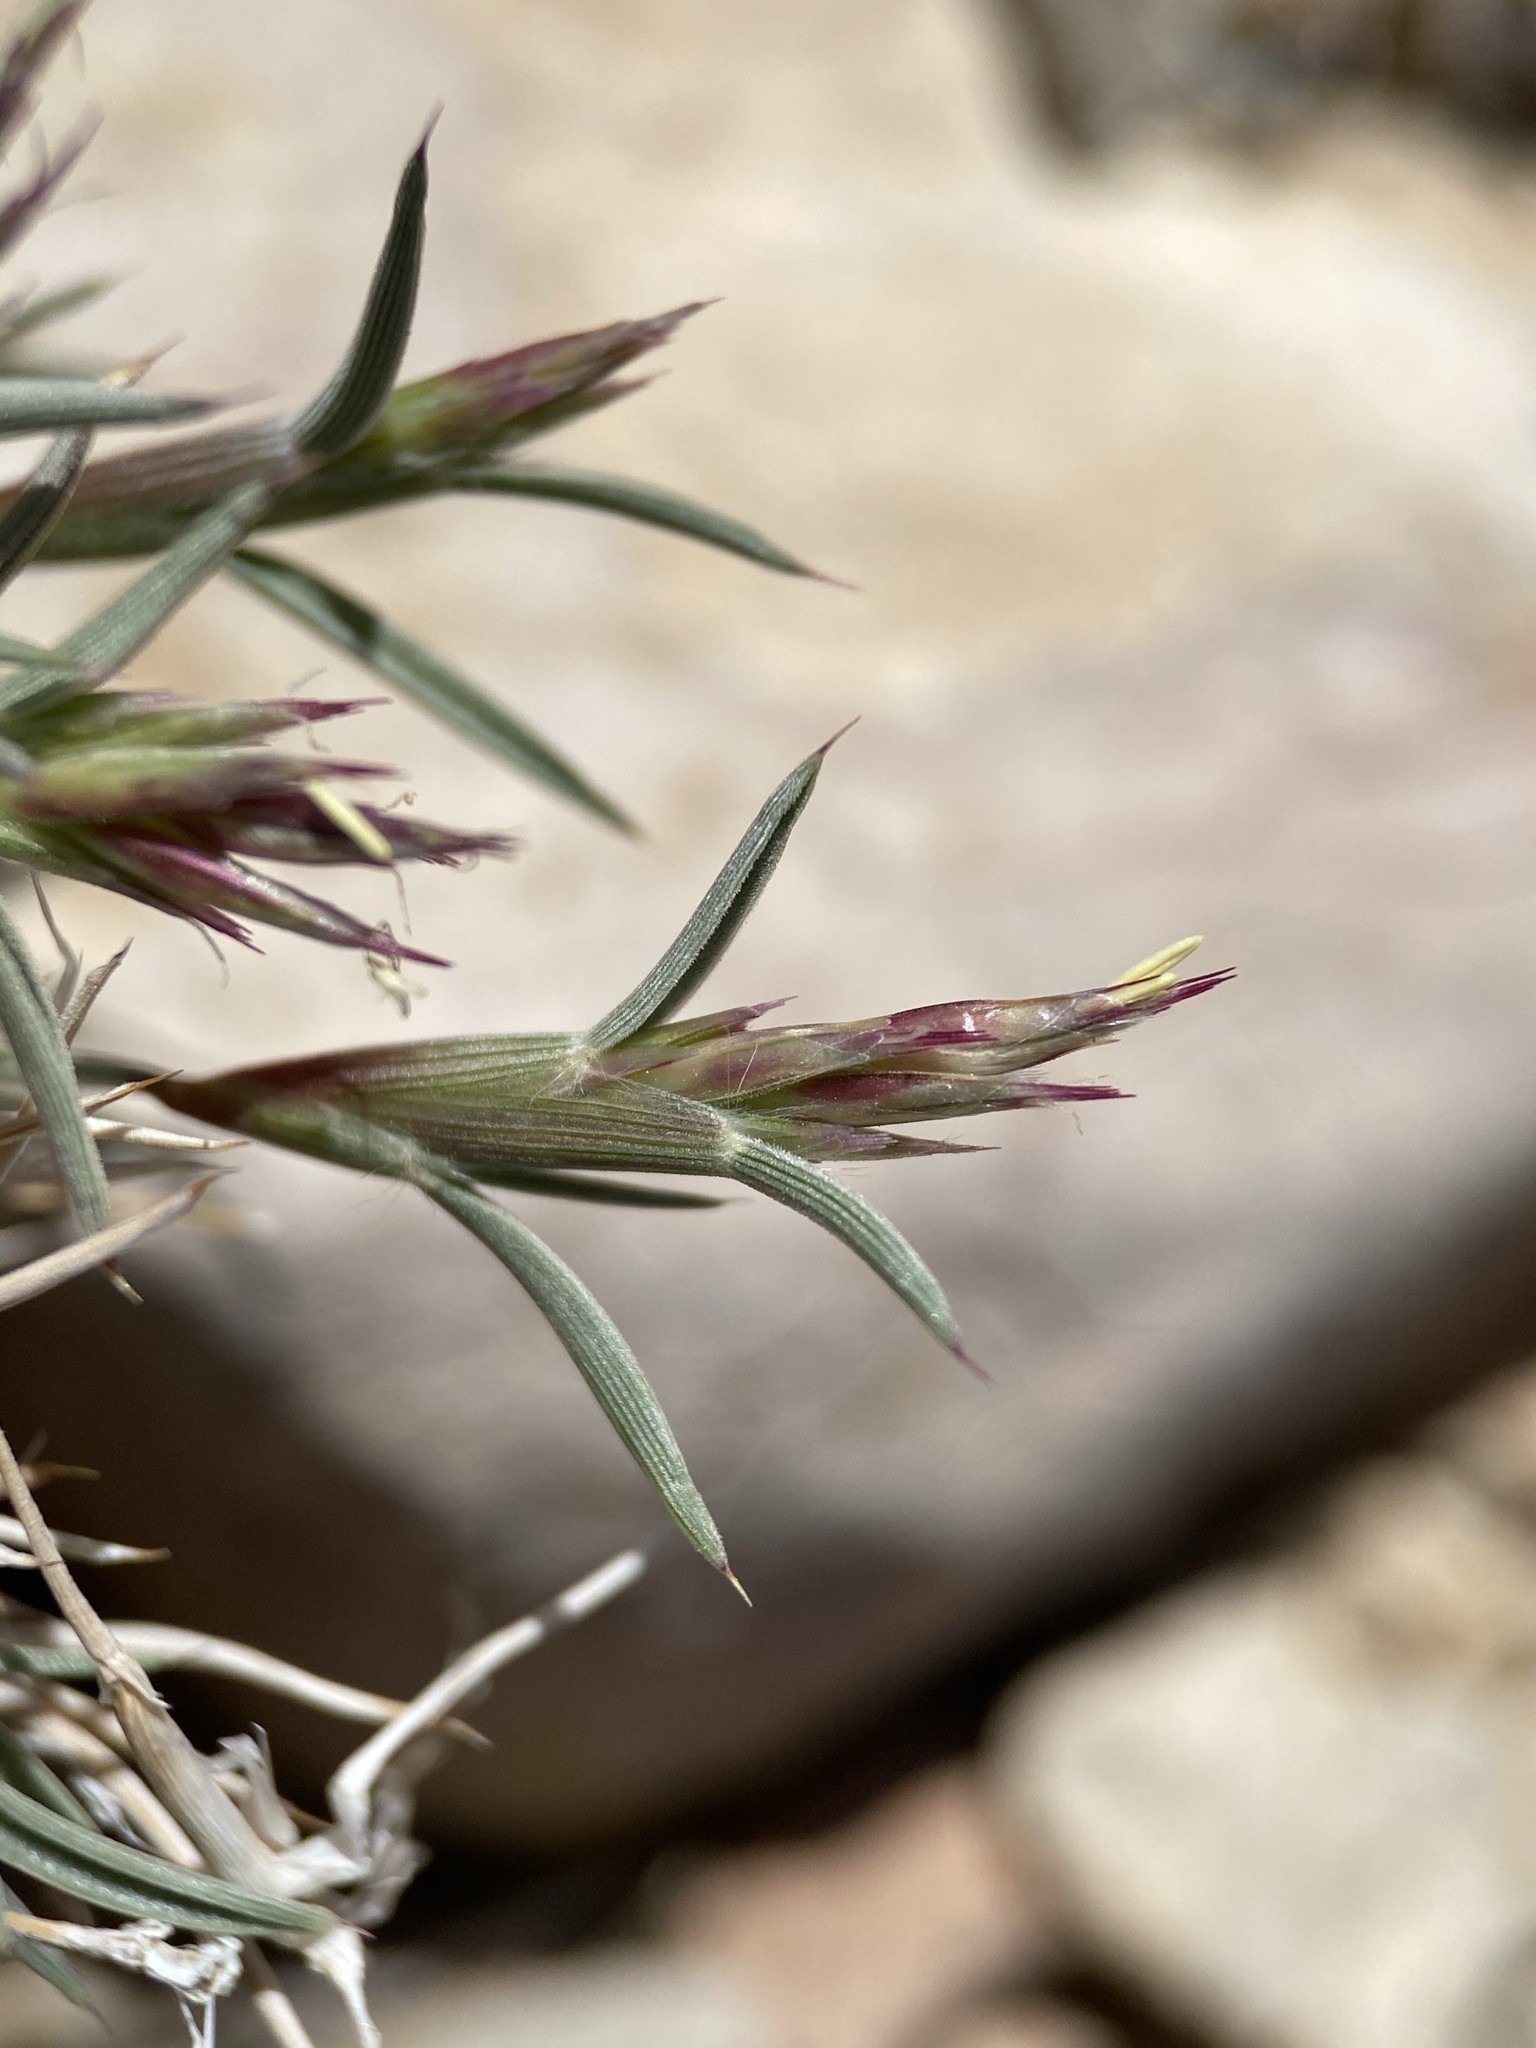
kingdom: Plantae
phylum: Tracheophyta
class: Liliopsida
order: Poales
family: Poaceae
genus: Blepharidachne
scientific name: Blepharidachne bigelovii
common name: Bigelow's desert grass
